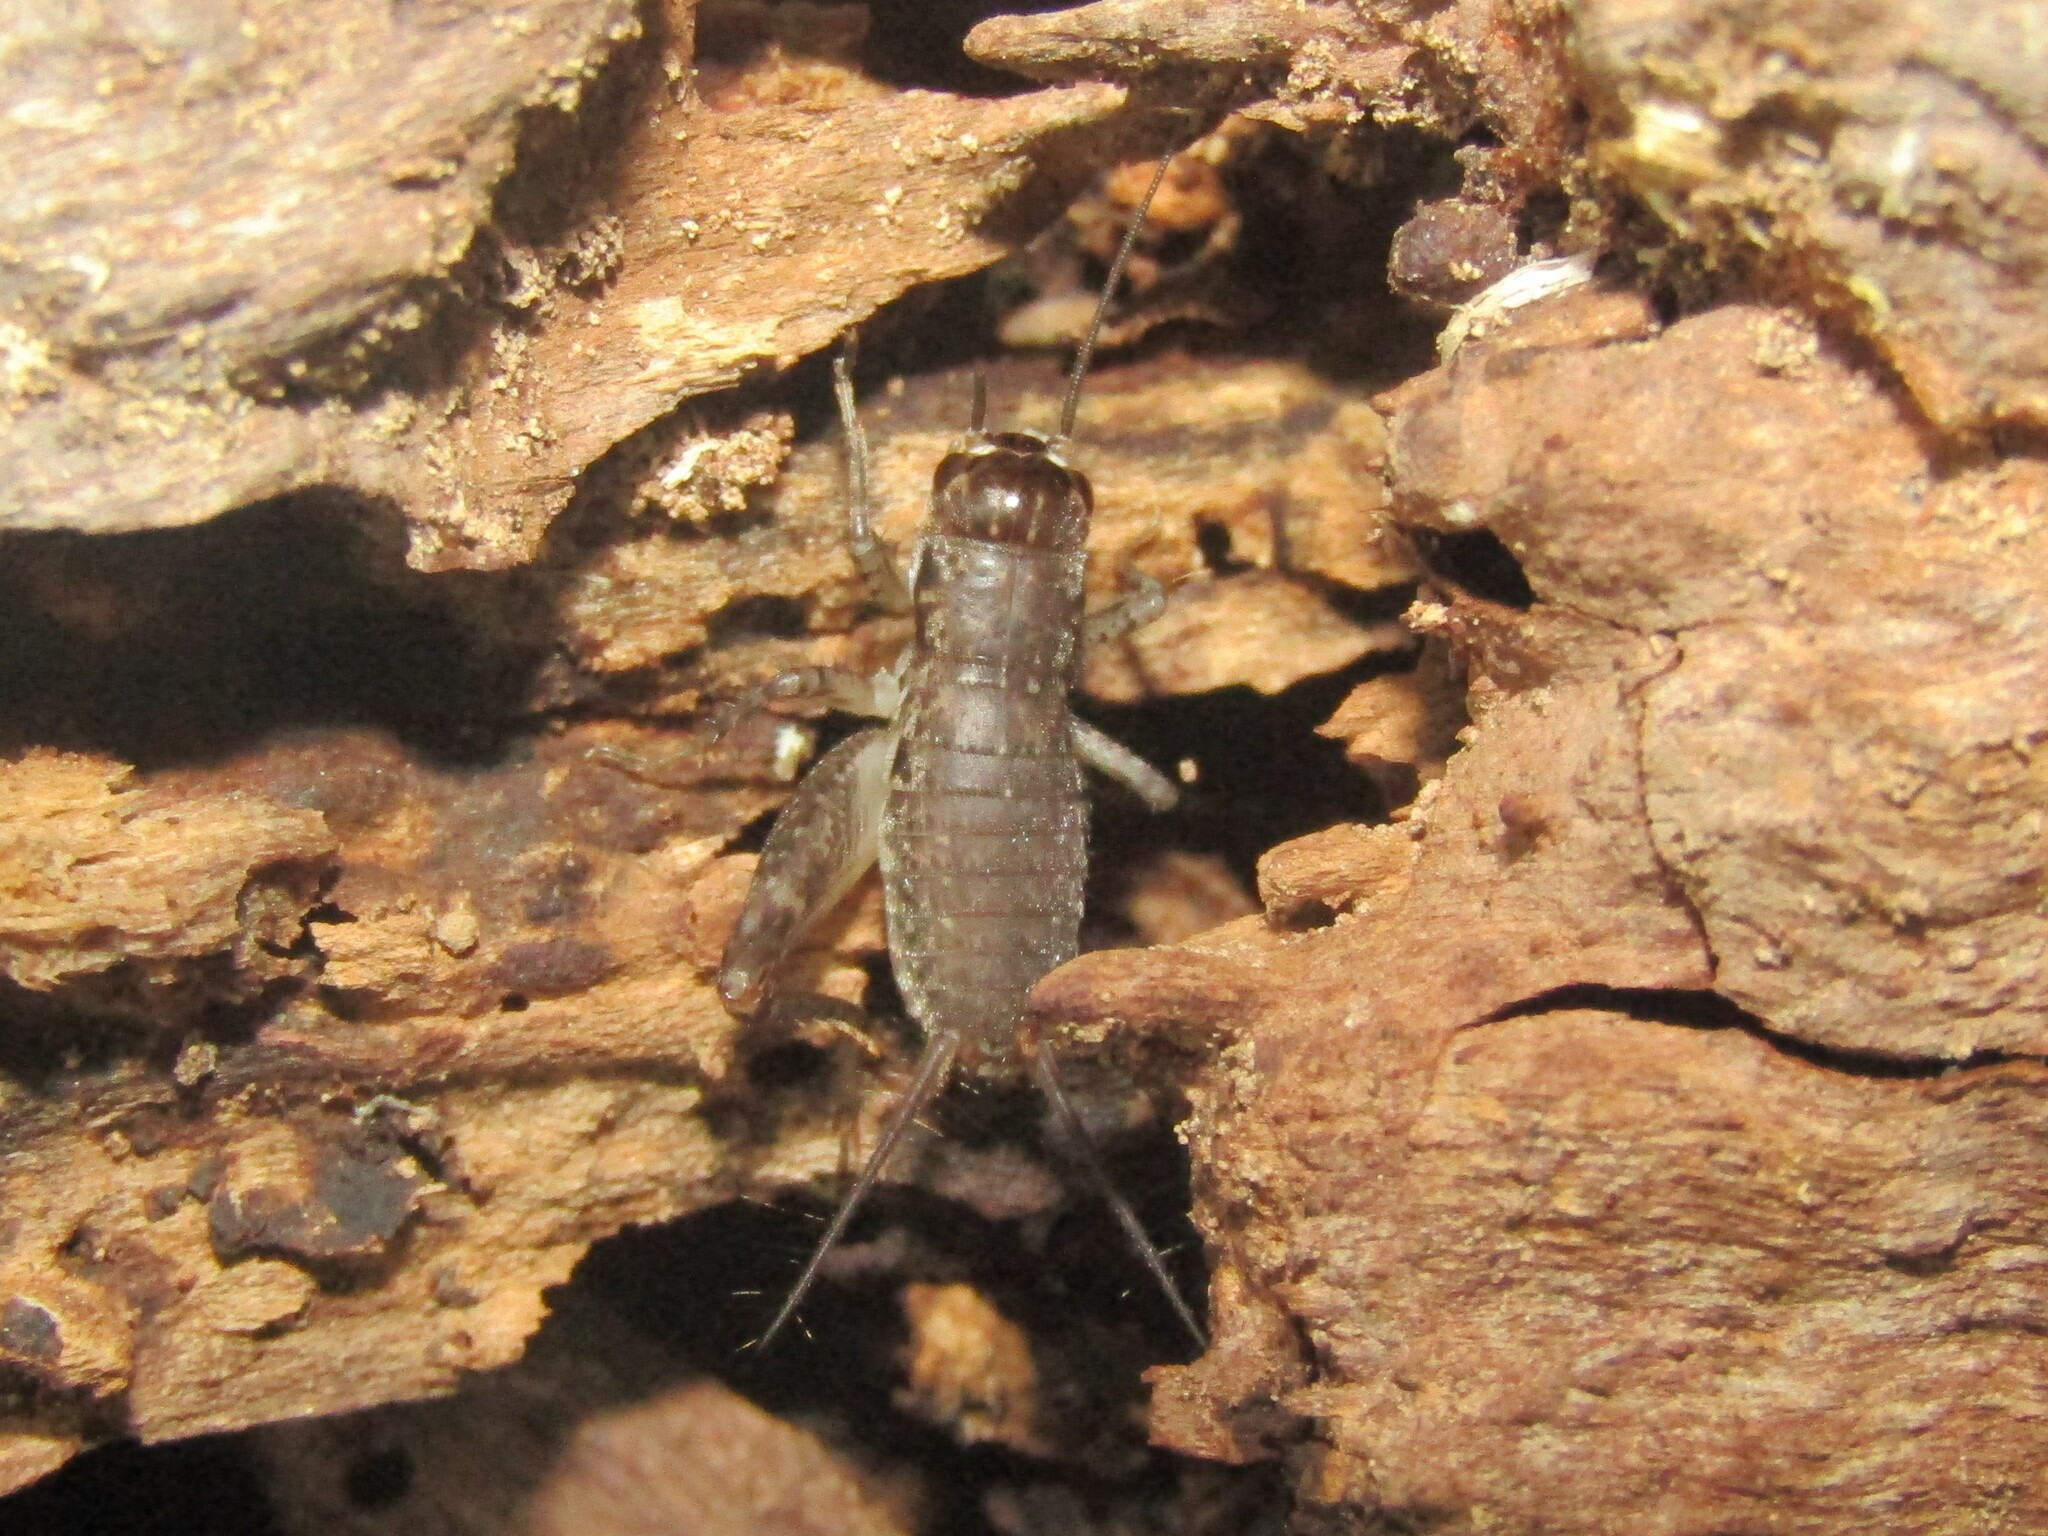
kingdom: Animalia
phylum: Arthropoda
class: Insecta
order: Orthoptera
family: Gryllidae
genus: Velarifictorus
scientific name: Velarifictorus micado
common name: Japanese burrowing cricket
